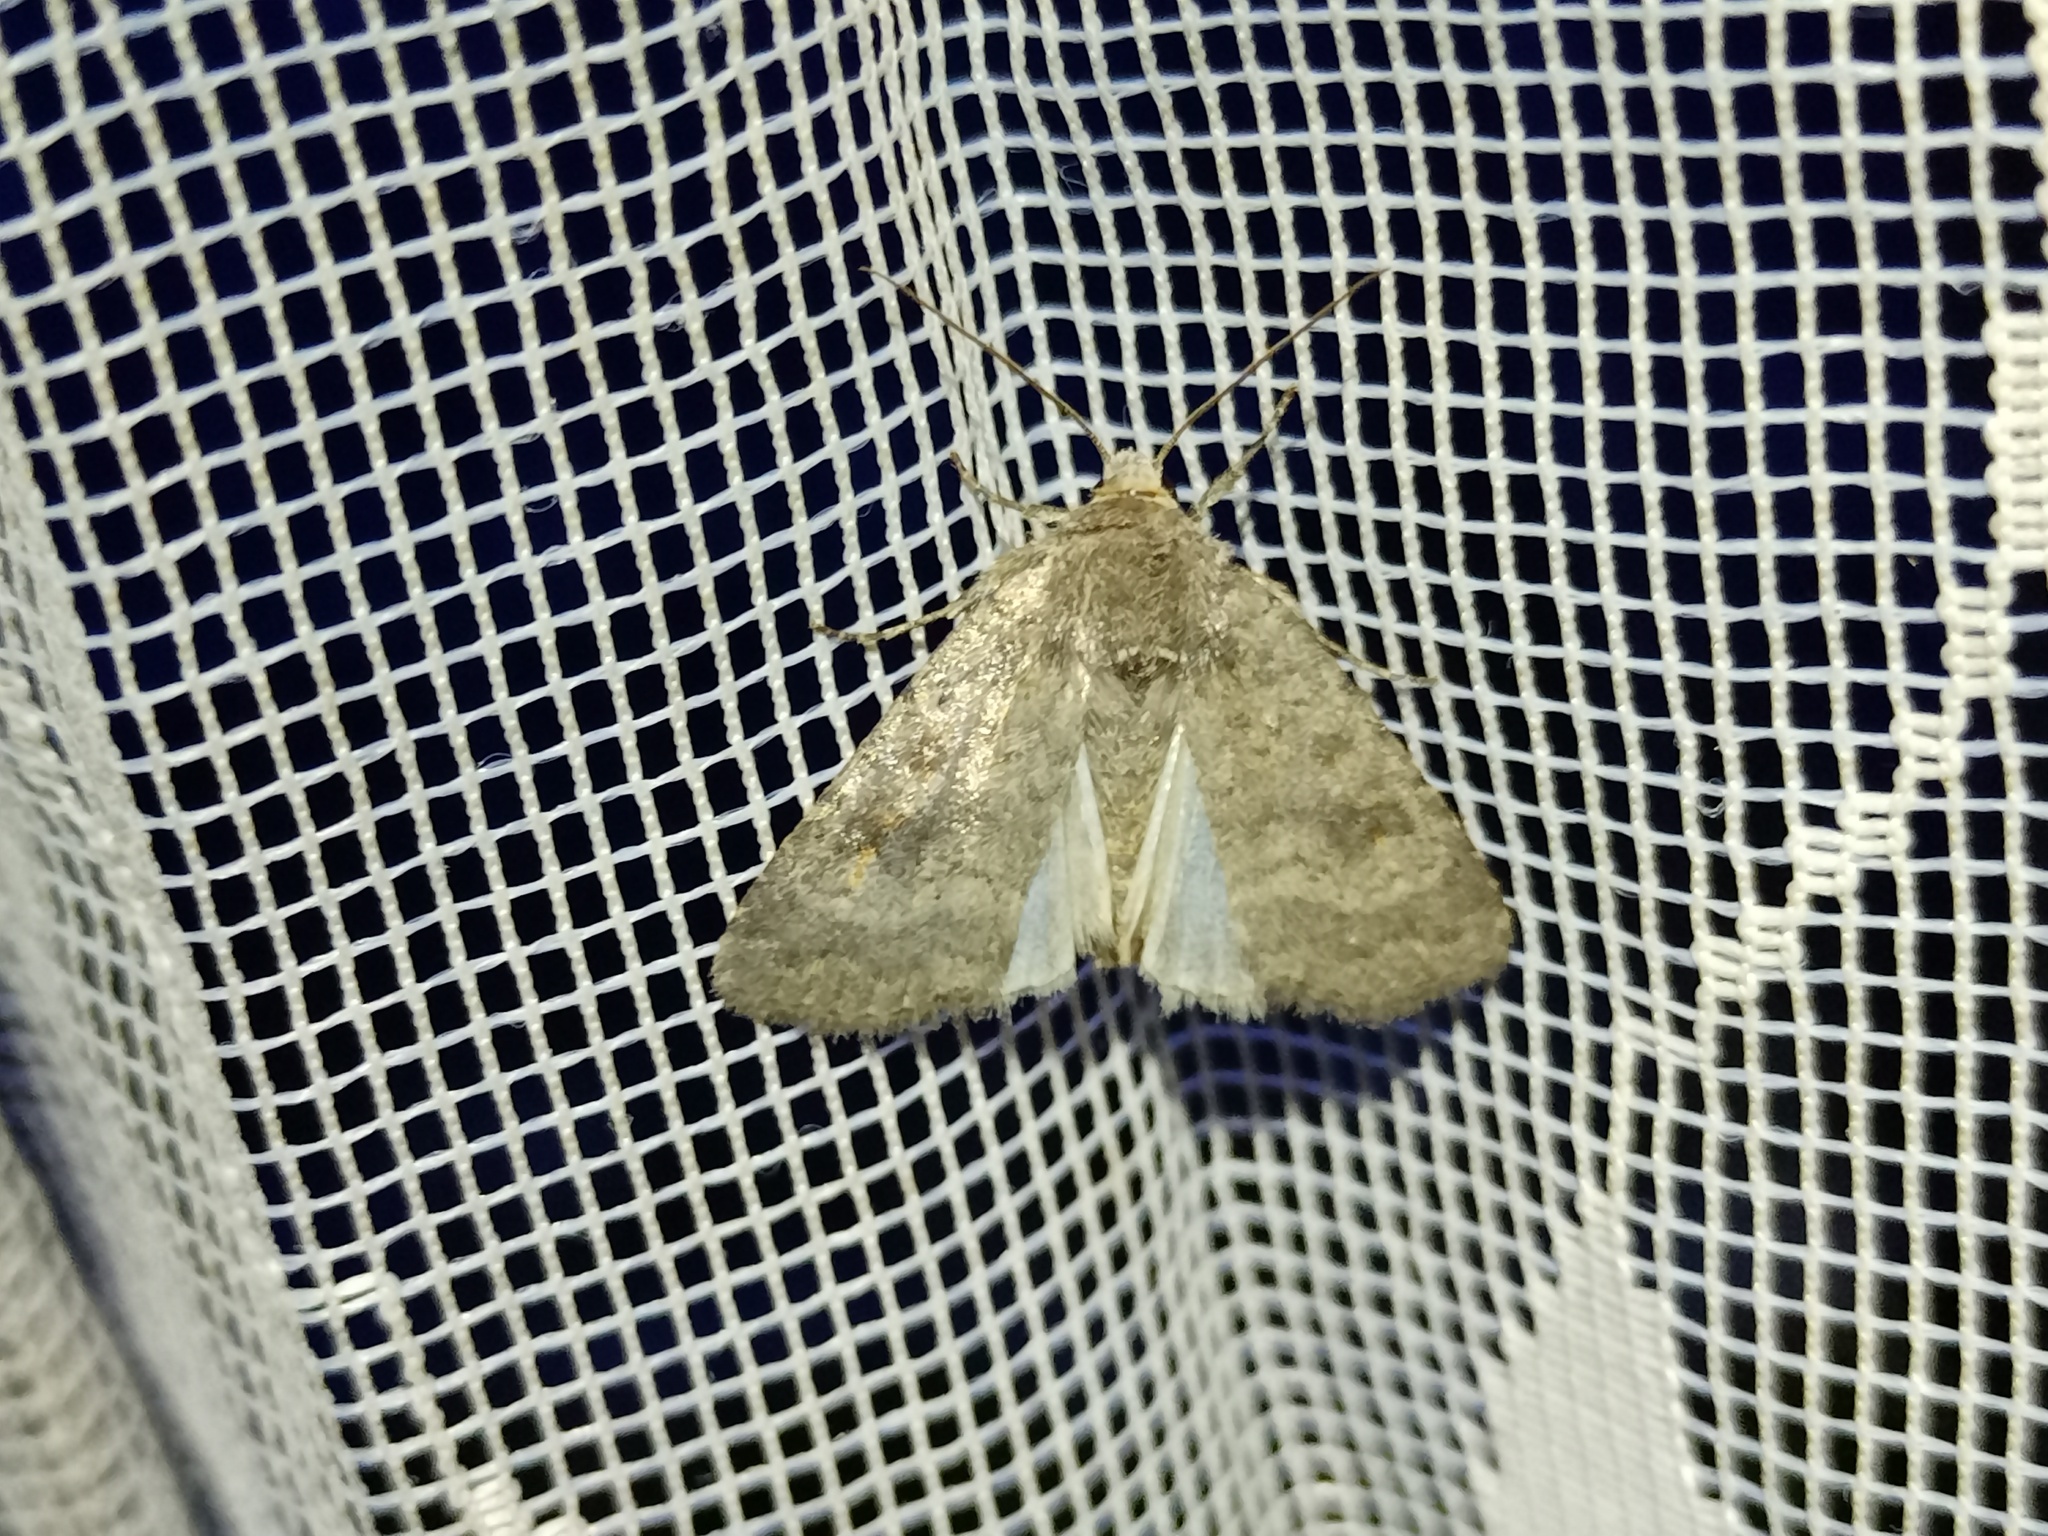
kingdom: Animalia
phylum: Arthropoda
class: Insecta
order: Lepidoptera
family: Noctuidae
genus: Caradrina
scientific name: Caradrina morpheus
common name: Mottled rustic
